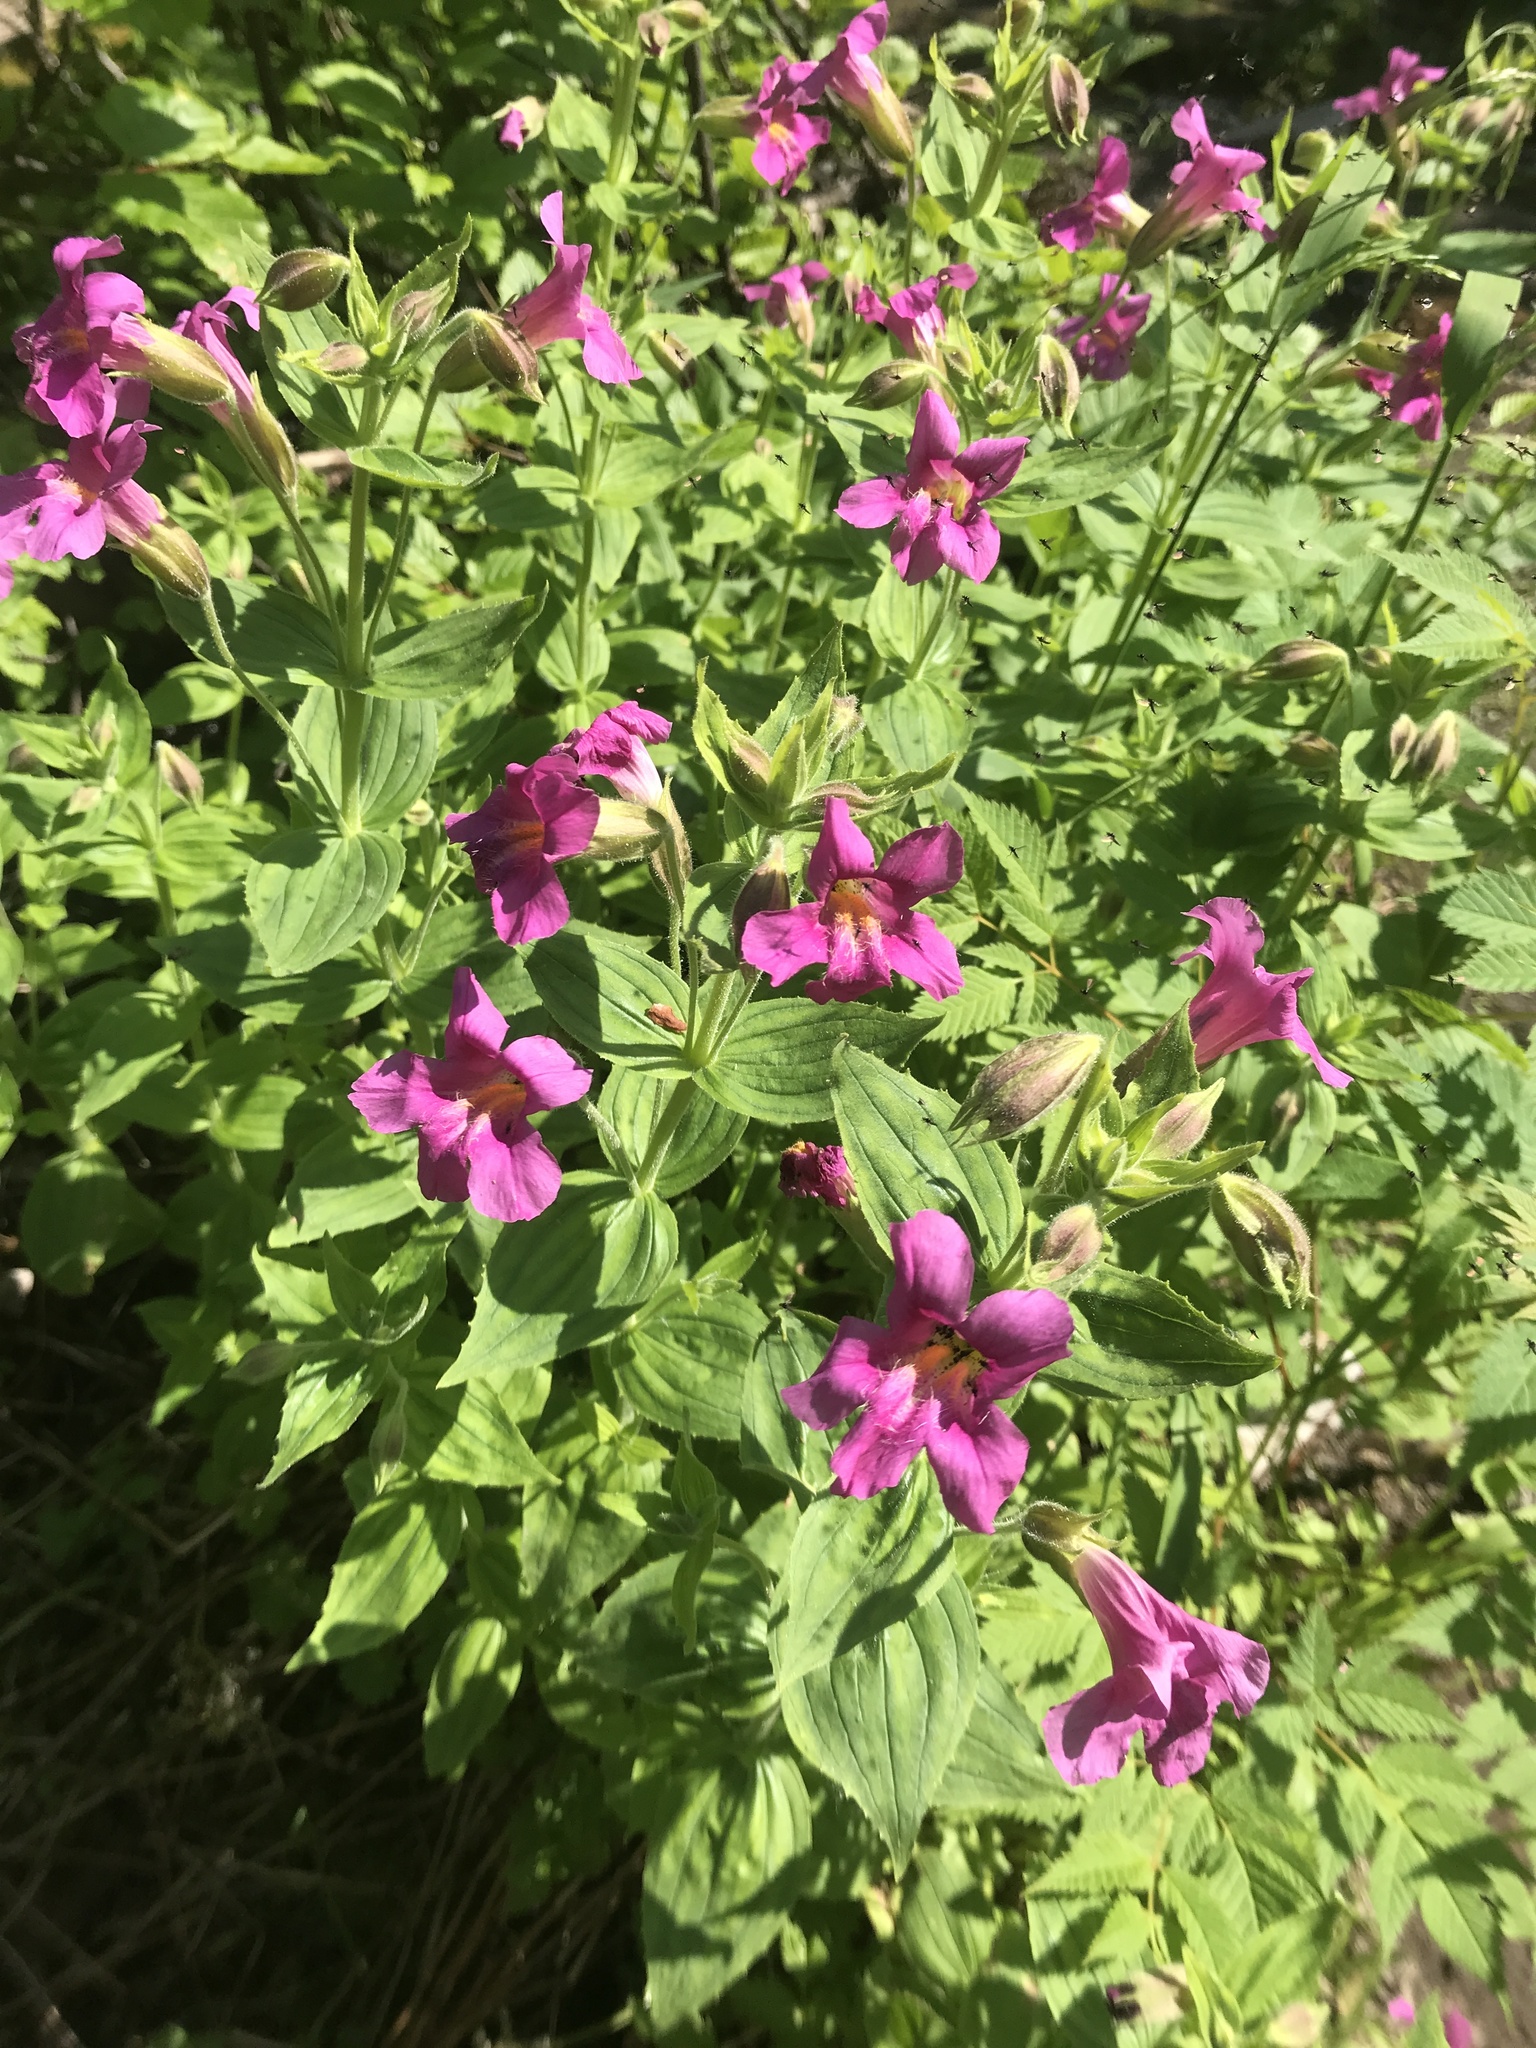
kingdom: Plantae
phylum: Tracheophyta
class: Magnoliopsida
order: Lamiales
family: Phrymaceae
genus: Erythranthe
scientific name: Erythranthe lewisii
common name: Lewis's monkey-flower
